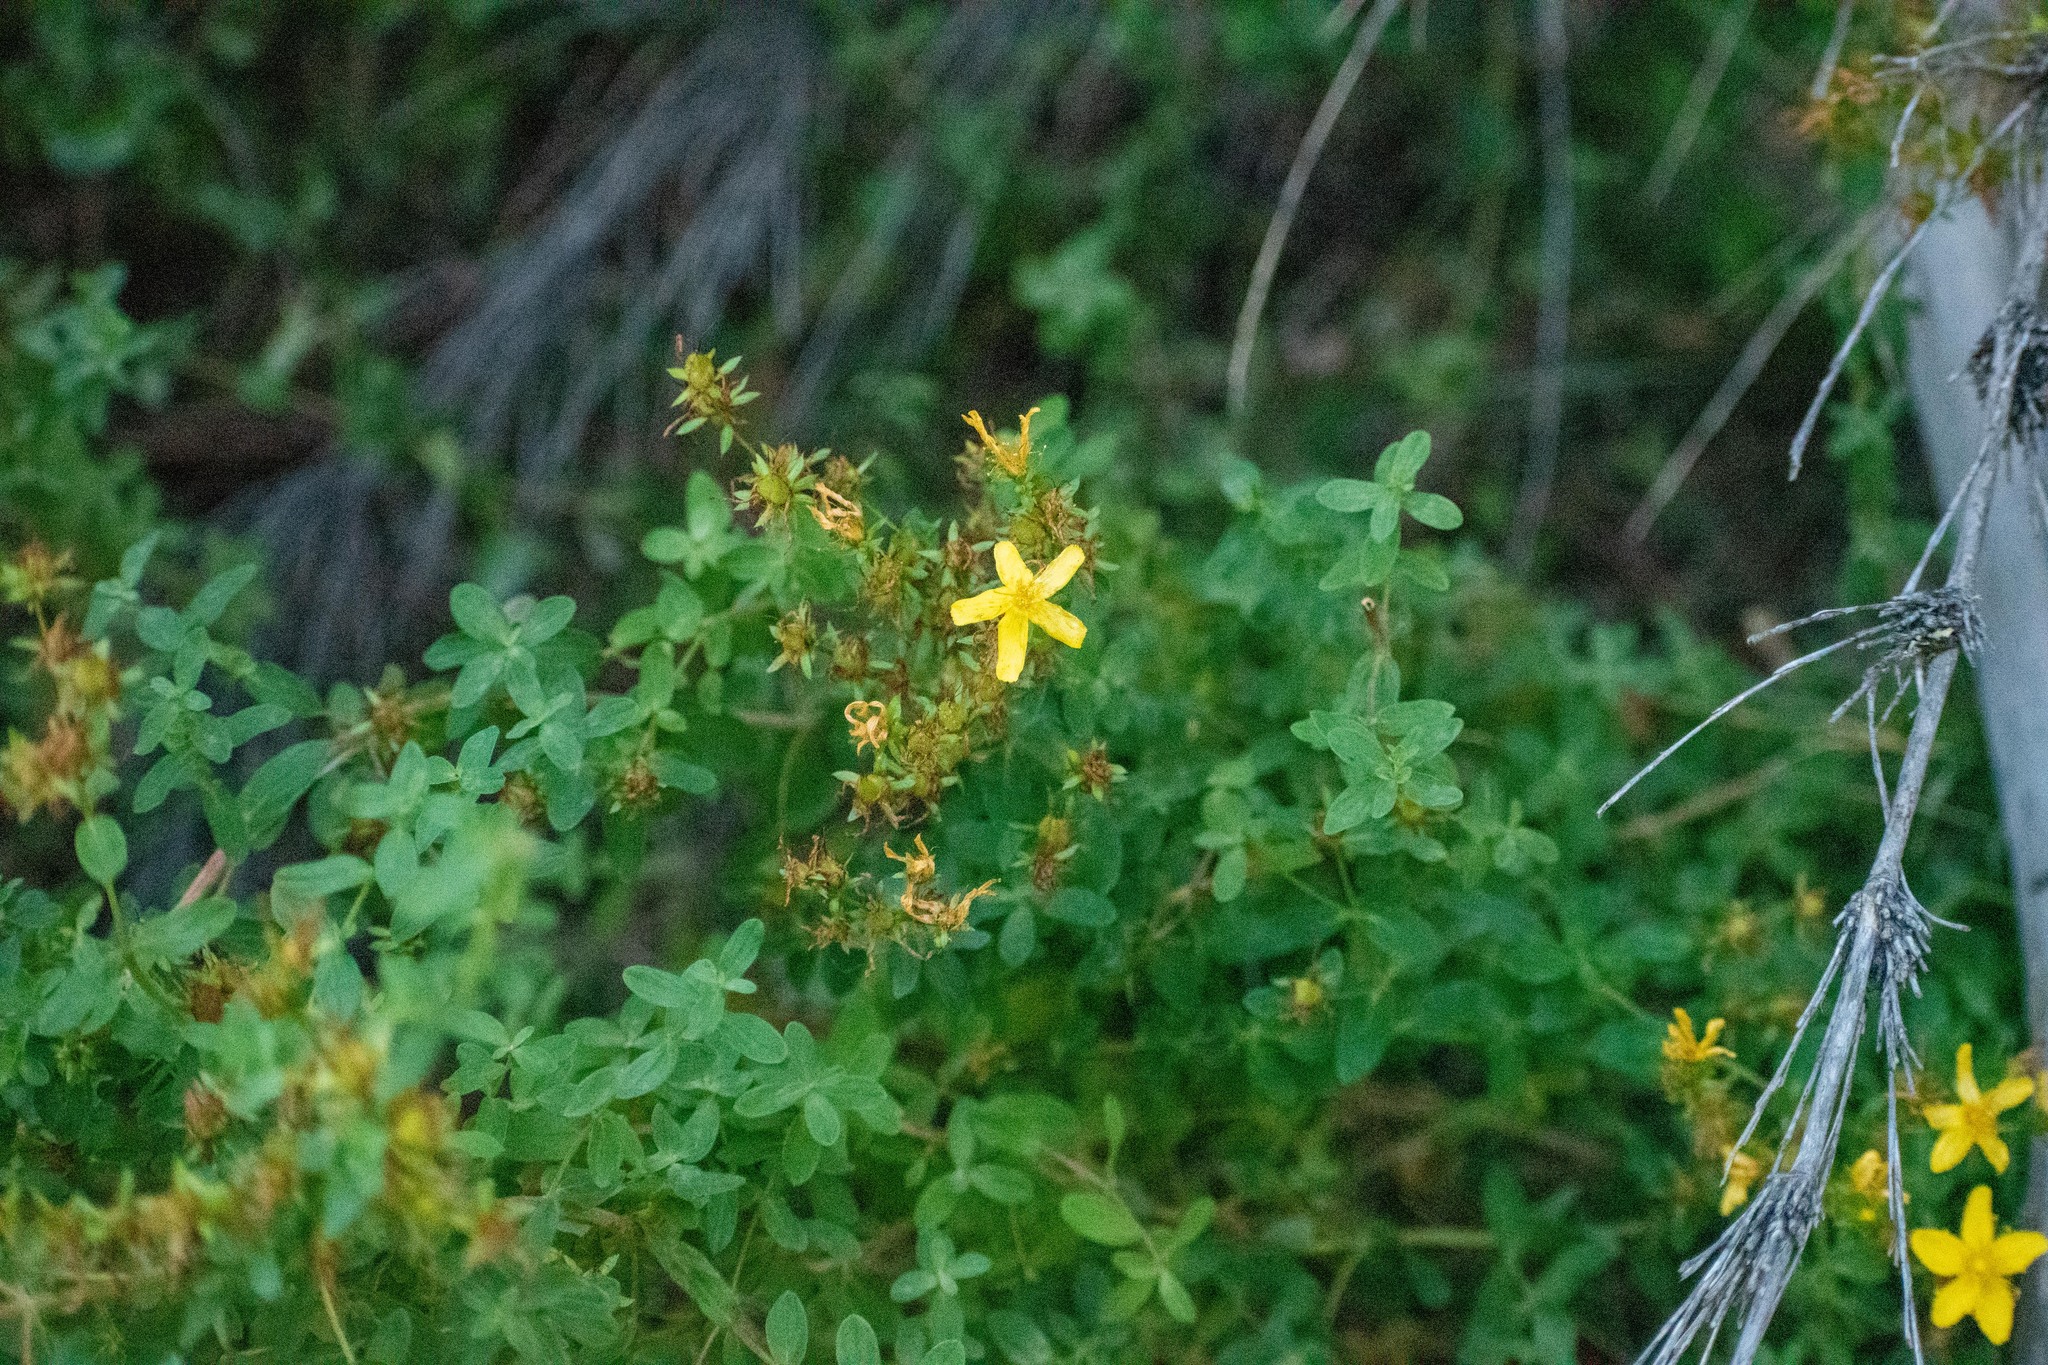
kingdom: Plantae
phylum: Tracheophyta
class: Magnoliopsida
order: Malpighiales
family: Hypericaceae
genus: Hypericum
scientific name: Hypericum perforatum
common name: Common st. johnswort
